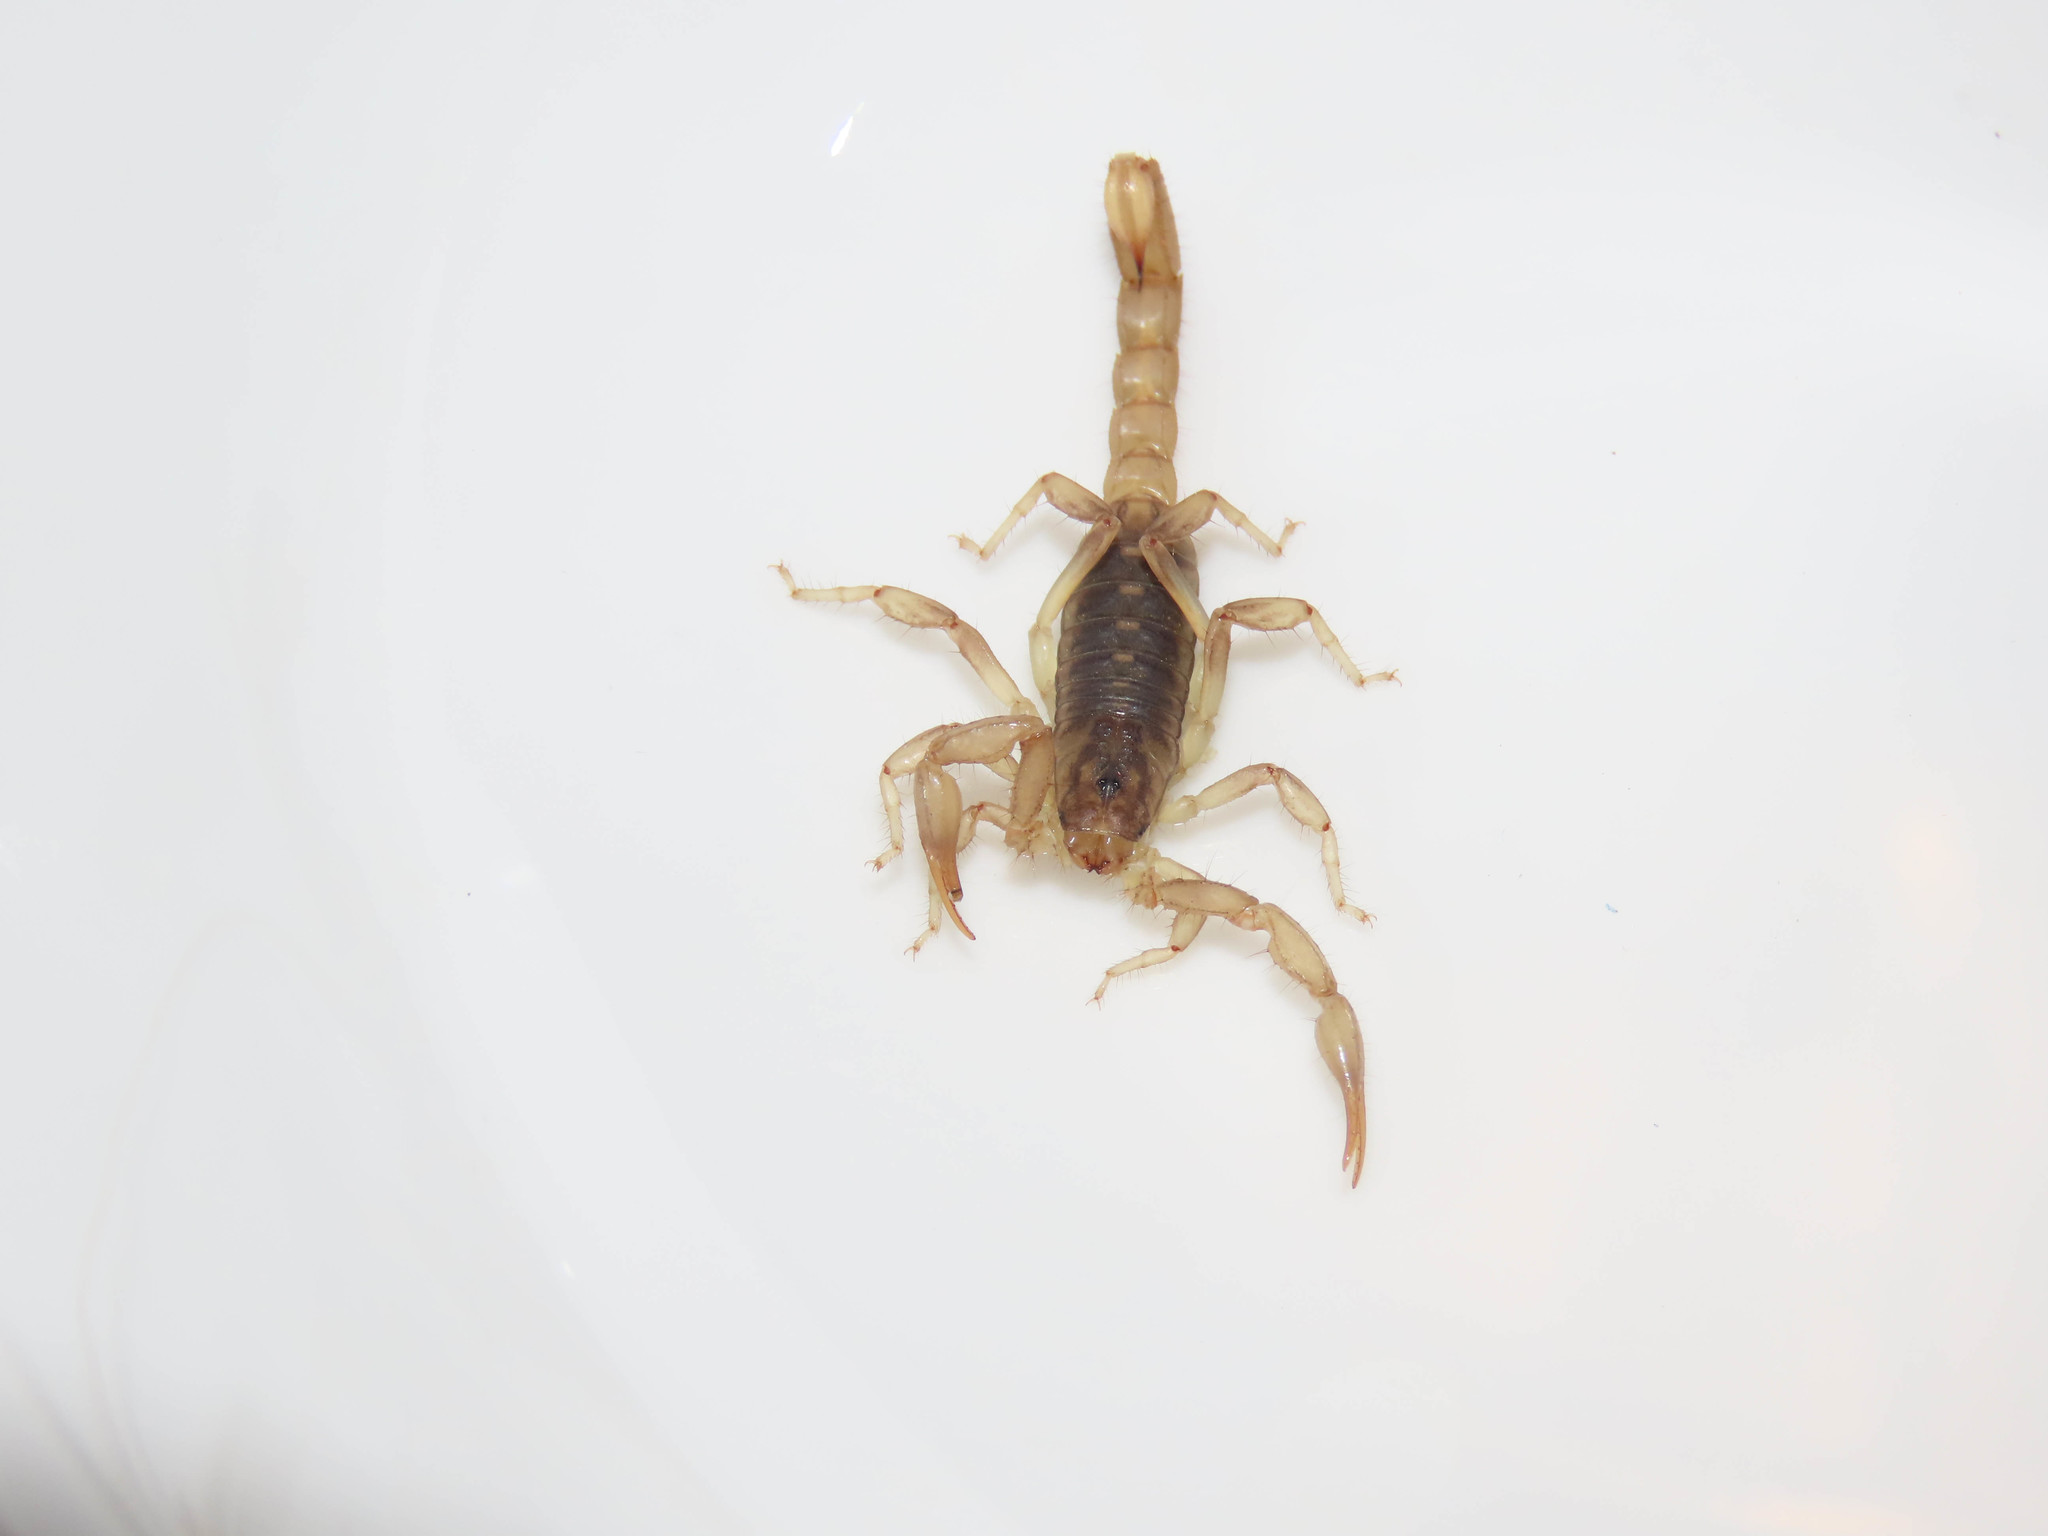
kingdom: Animalia
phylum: Arthropoda
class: Arachnida
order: Scorpiones
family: Vaejovidae
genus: Paravaejovis
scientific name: Paravaejovis spinigerus
